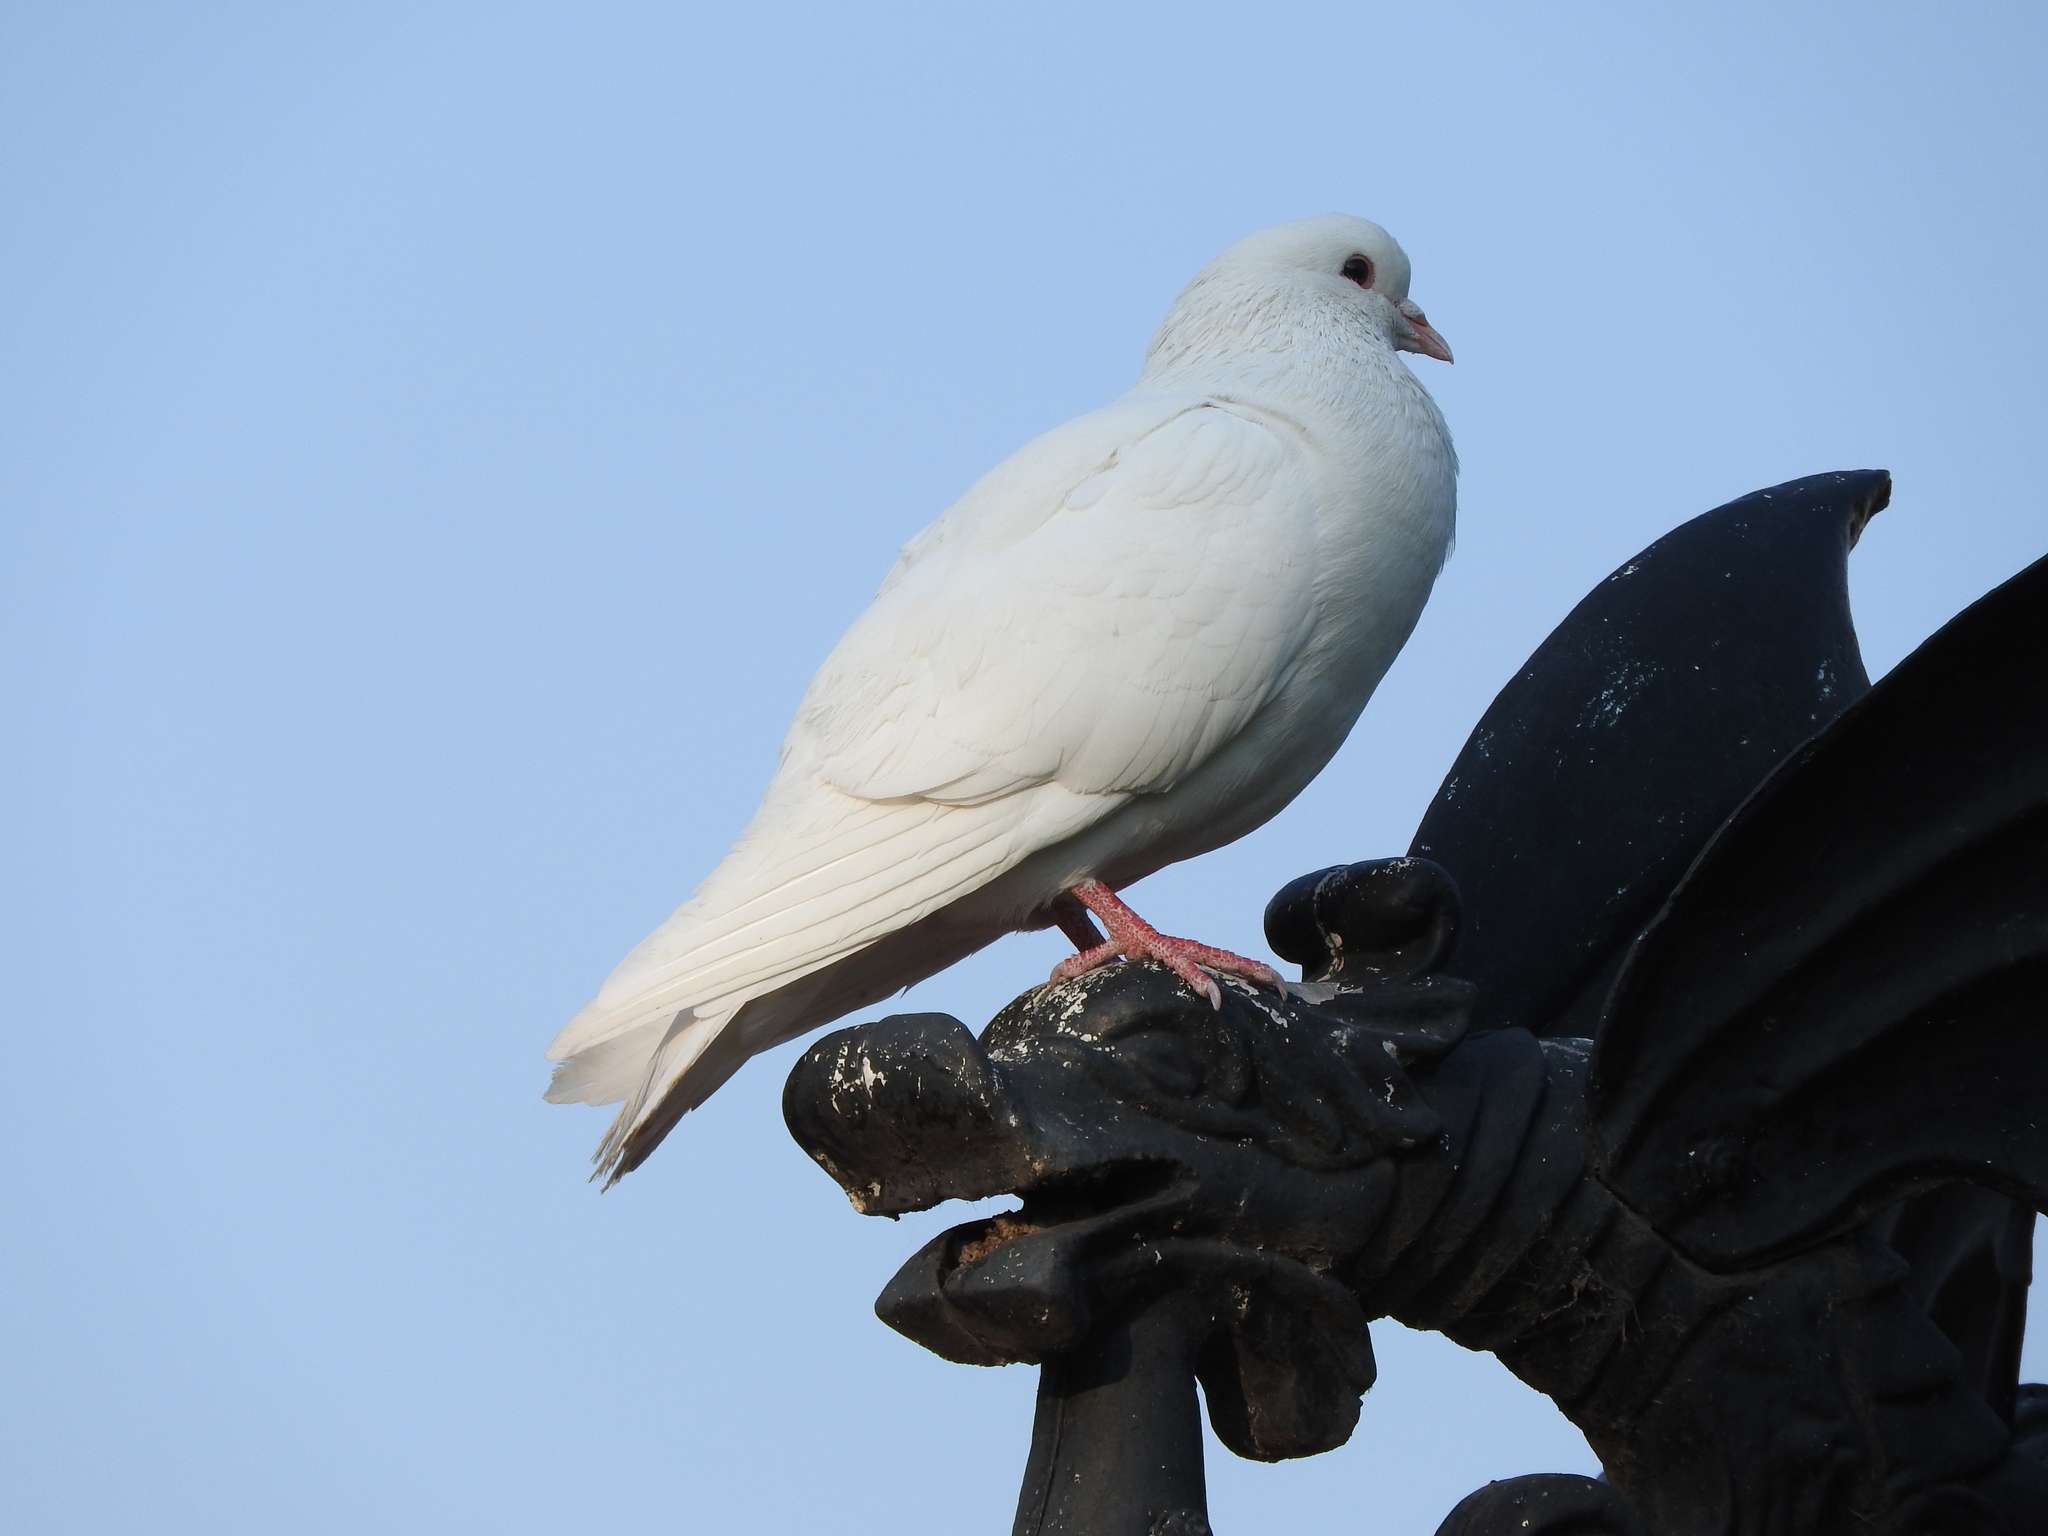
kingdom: Animalia
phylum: Chordata
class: Aves
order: Columbiformes
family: Columbidae
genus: Columba
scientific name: Columba livia
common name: Rock pigeon
